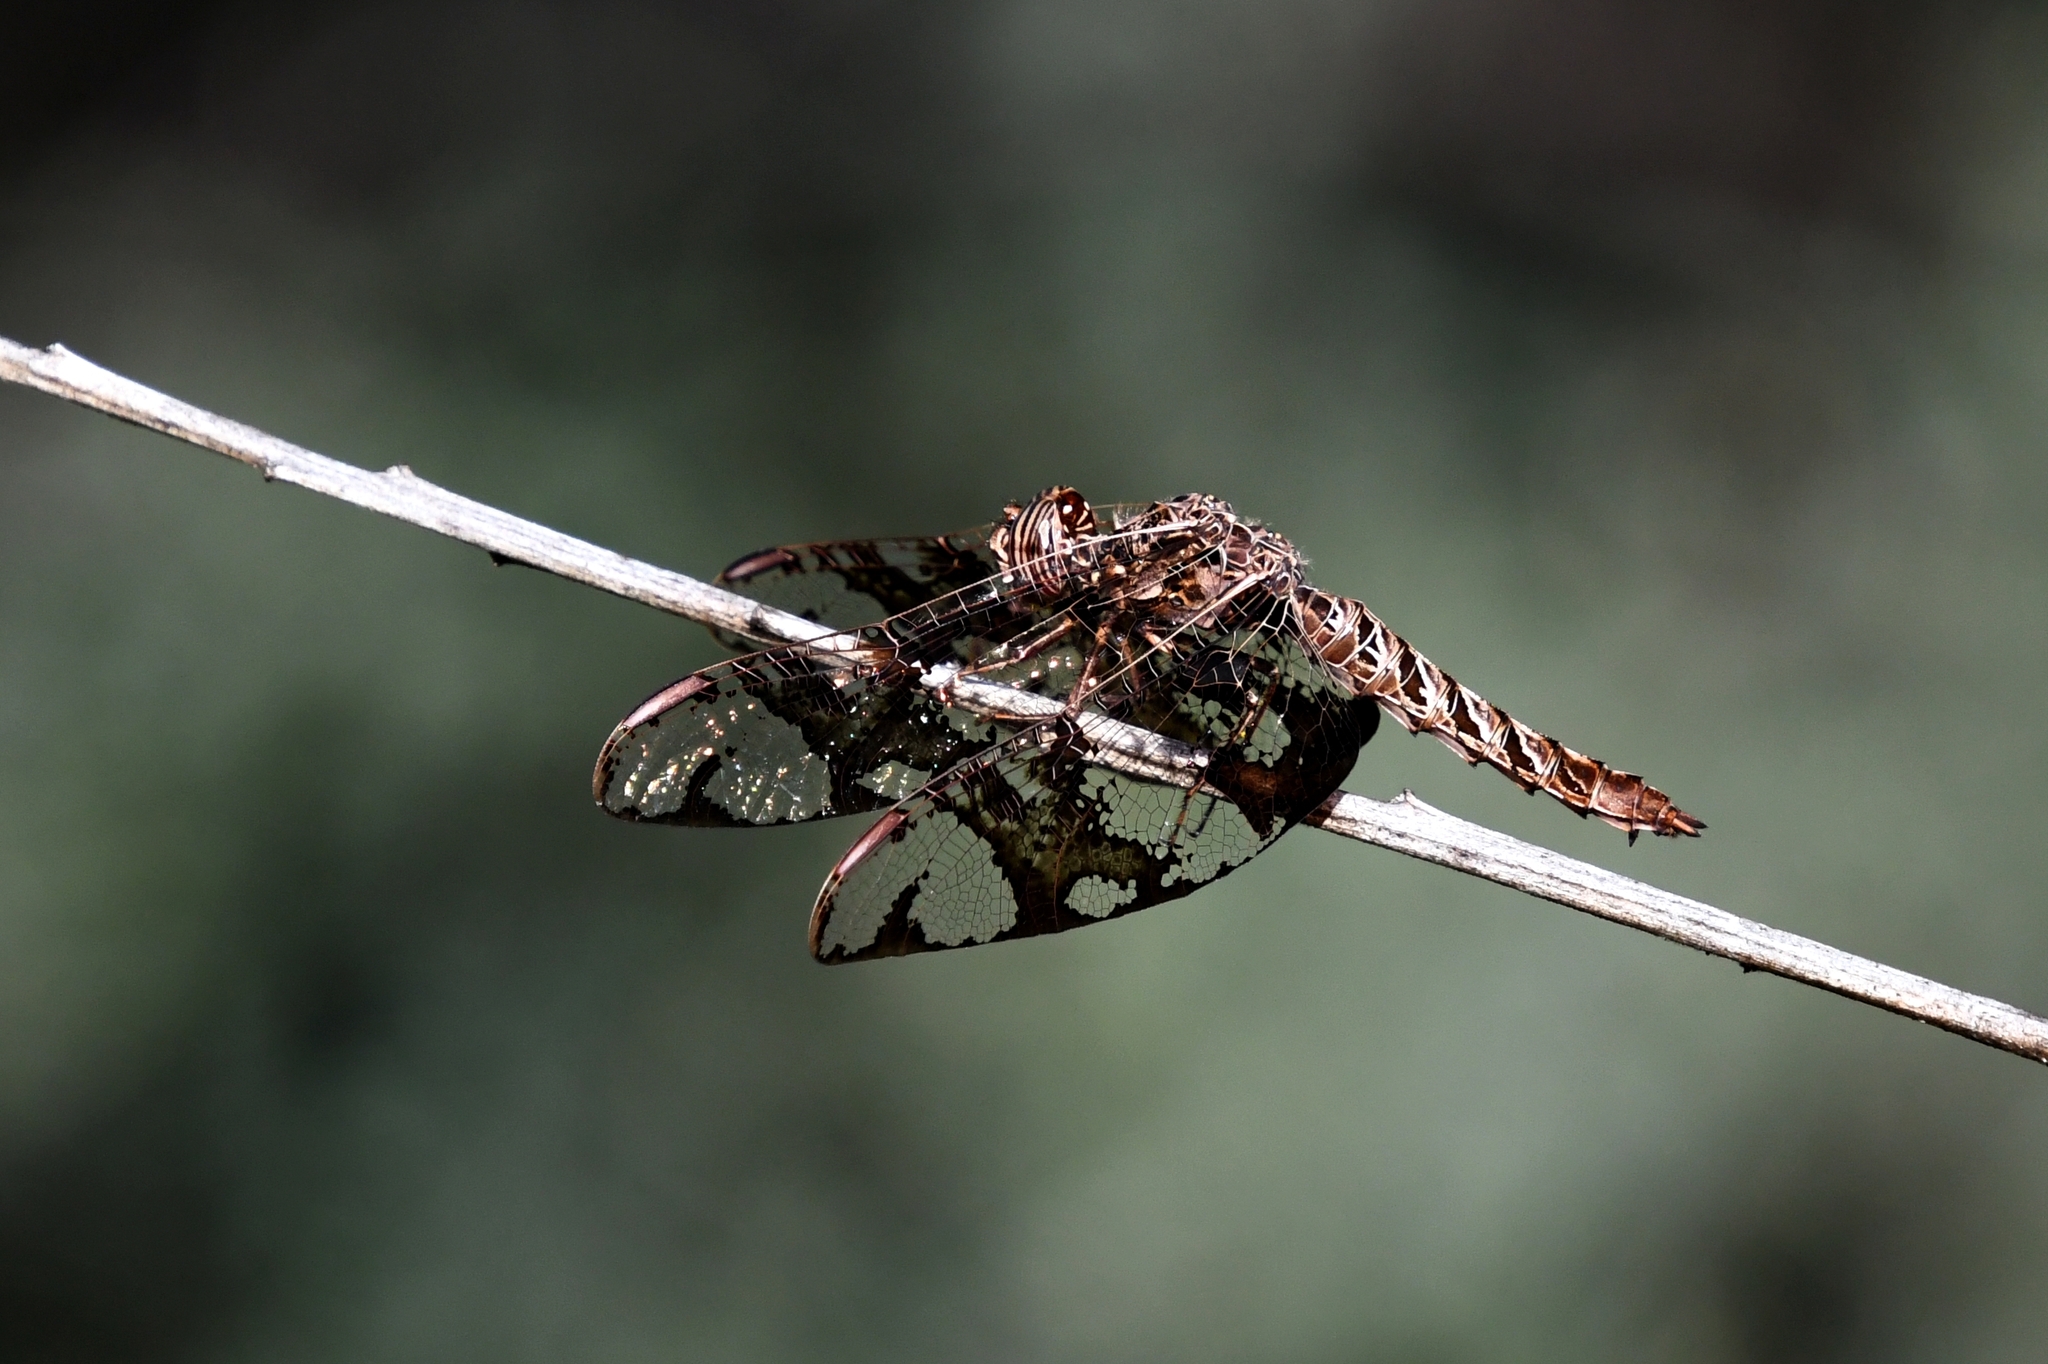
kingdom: Animalia
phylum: Arthropoda
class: Insecta
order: Odonata
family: Libellulidae
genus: Pseudoleon
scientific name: Pseudoleon superbus
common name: Filigree skimmer
